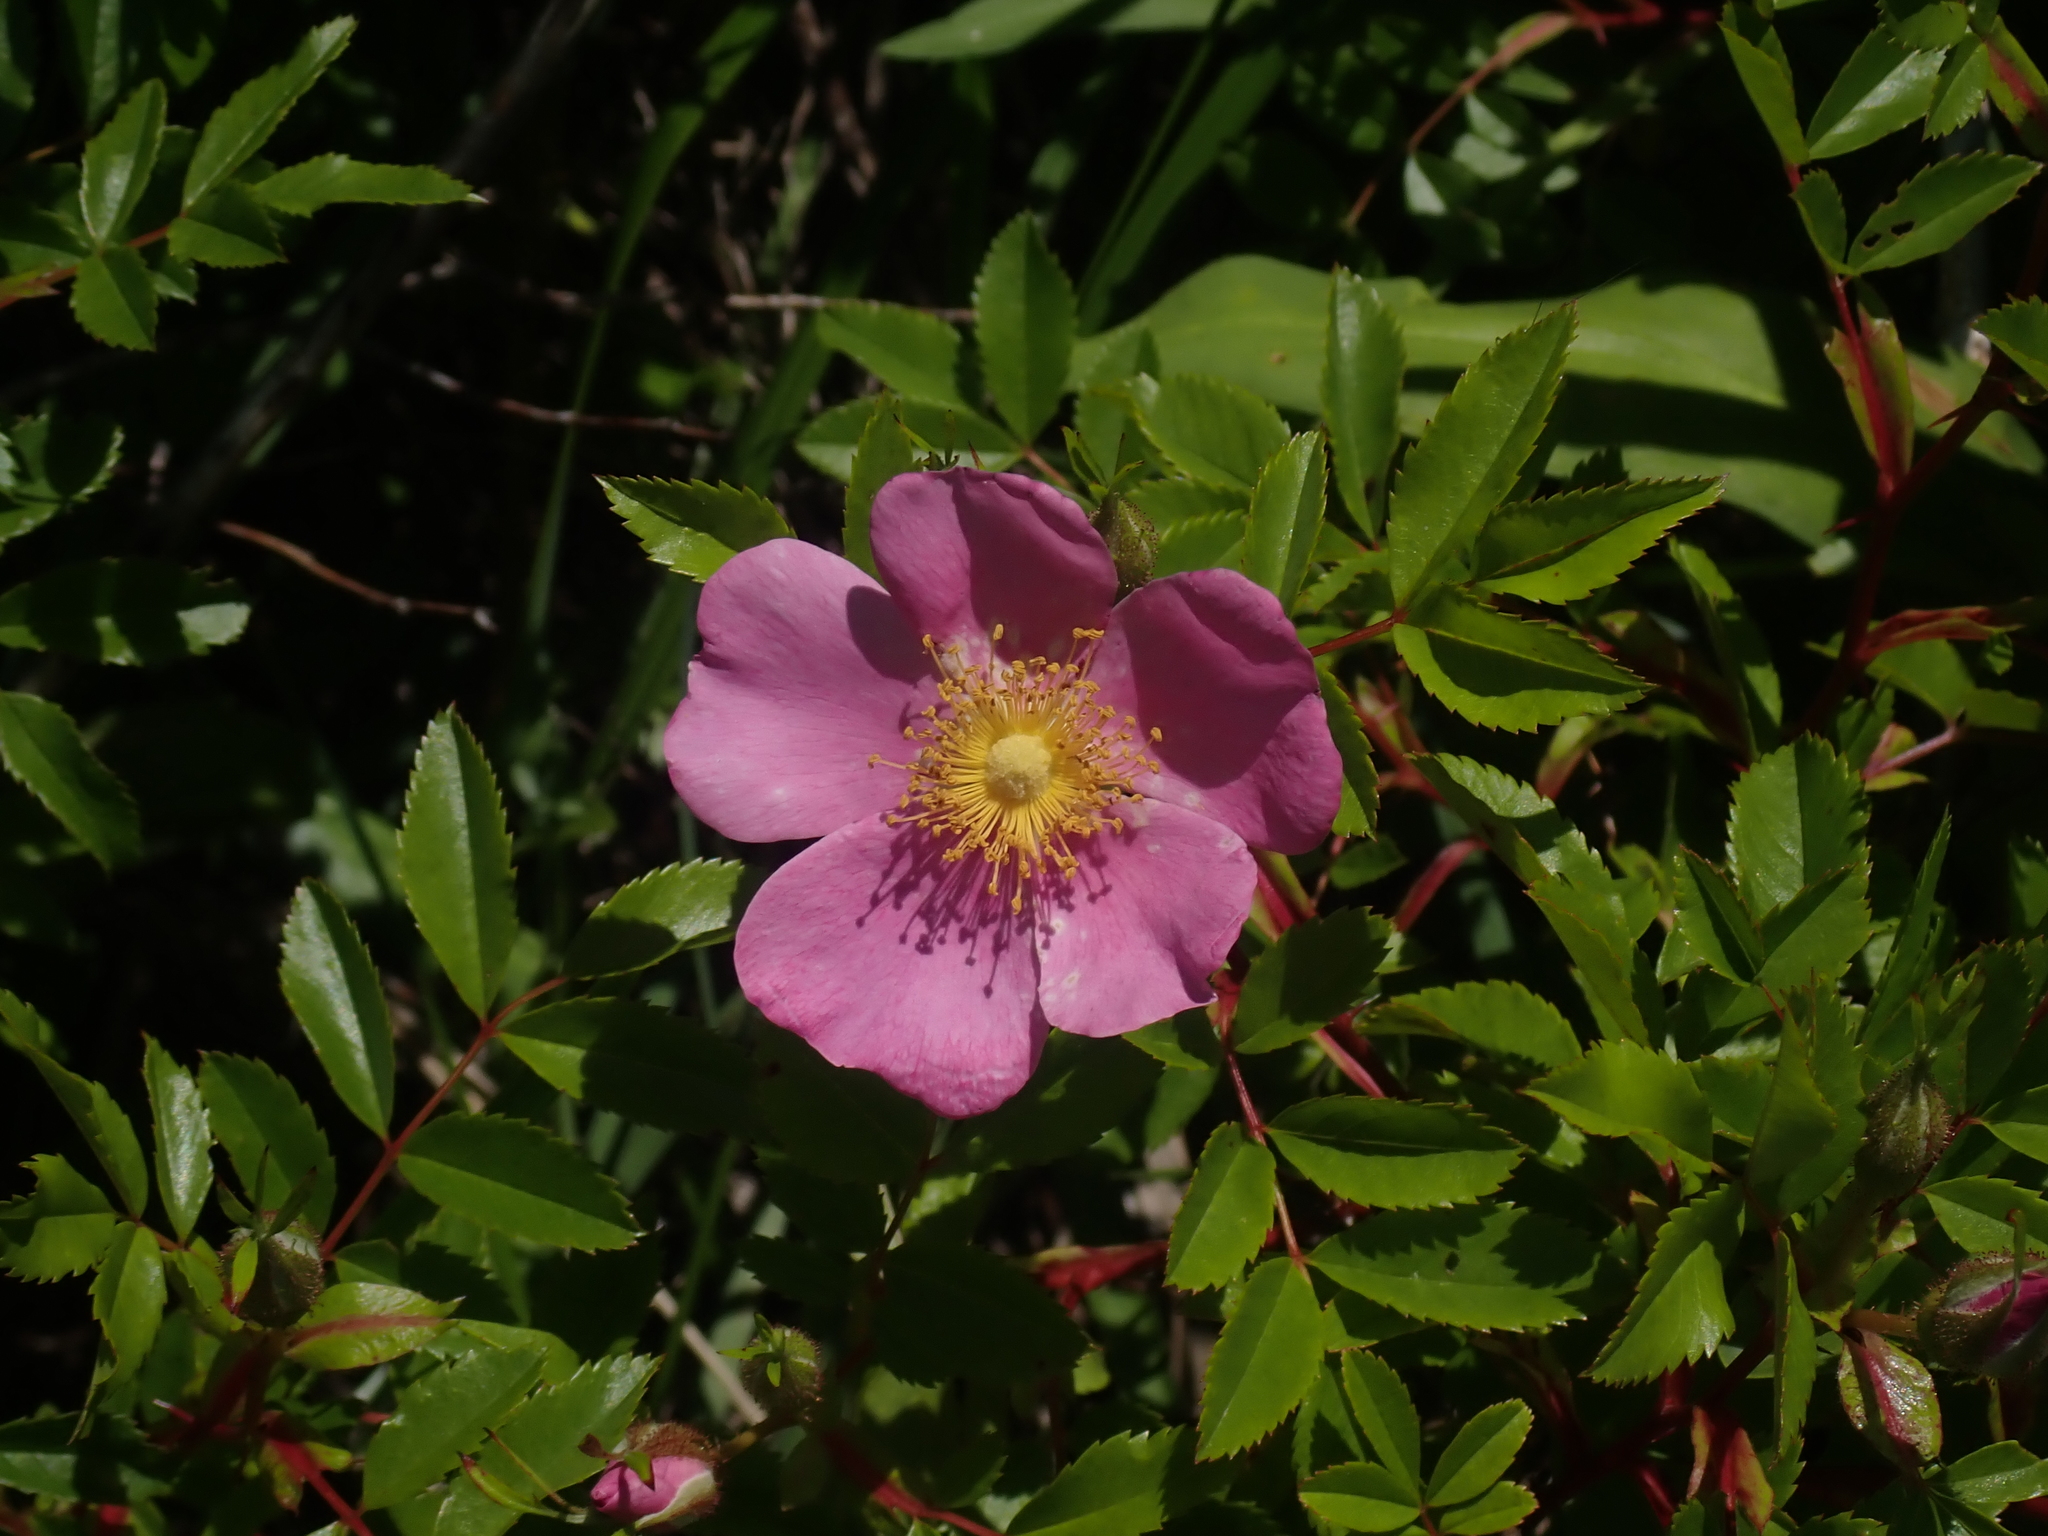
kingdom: Plantae
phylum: Tracheophyta
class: Magnoliopsida
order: Rosales
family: Rosaceae
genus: Rosa
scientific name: Rosa carolina
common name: Pasture rose
